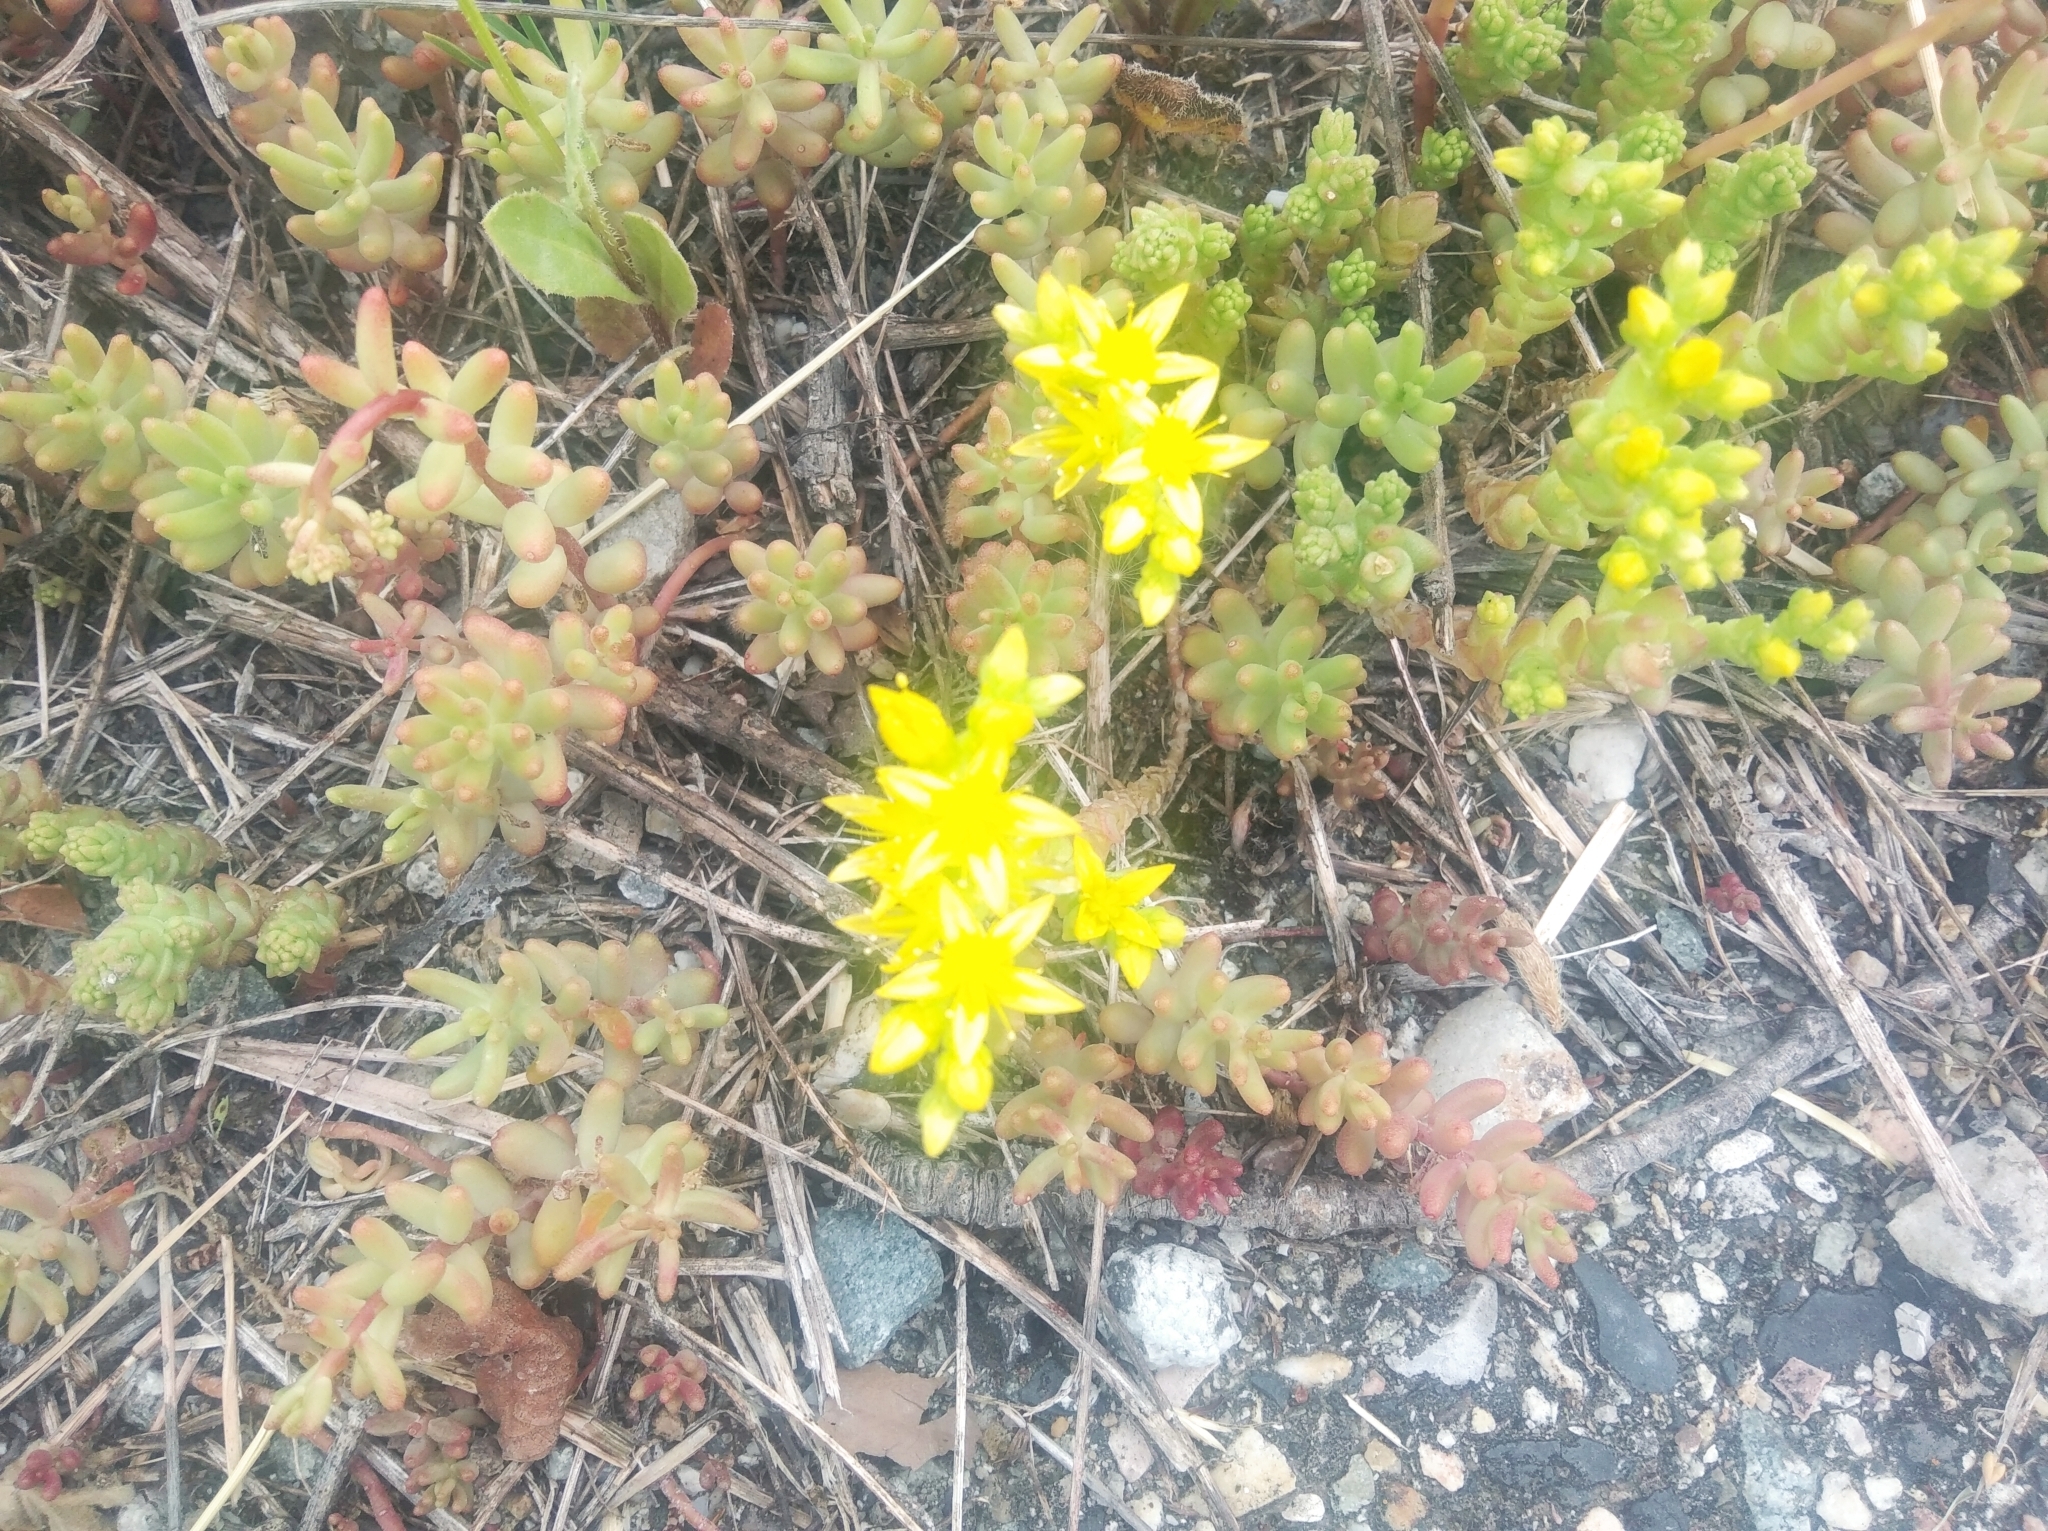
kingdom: Plantae
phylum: Tracheophyta
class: Magnoliopsida
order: Saxifragales
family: Crassulaceae
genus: Sedum
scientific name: Sedum acre
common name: Biting stonecrop
